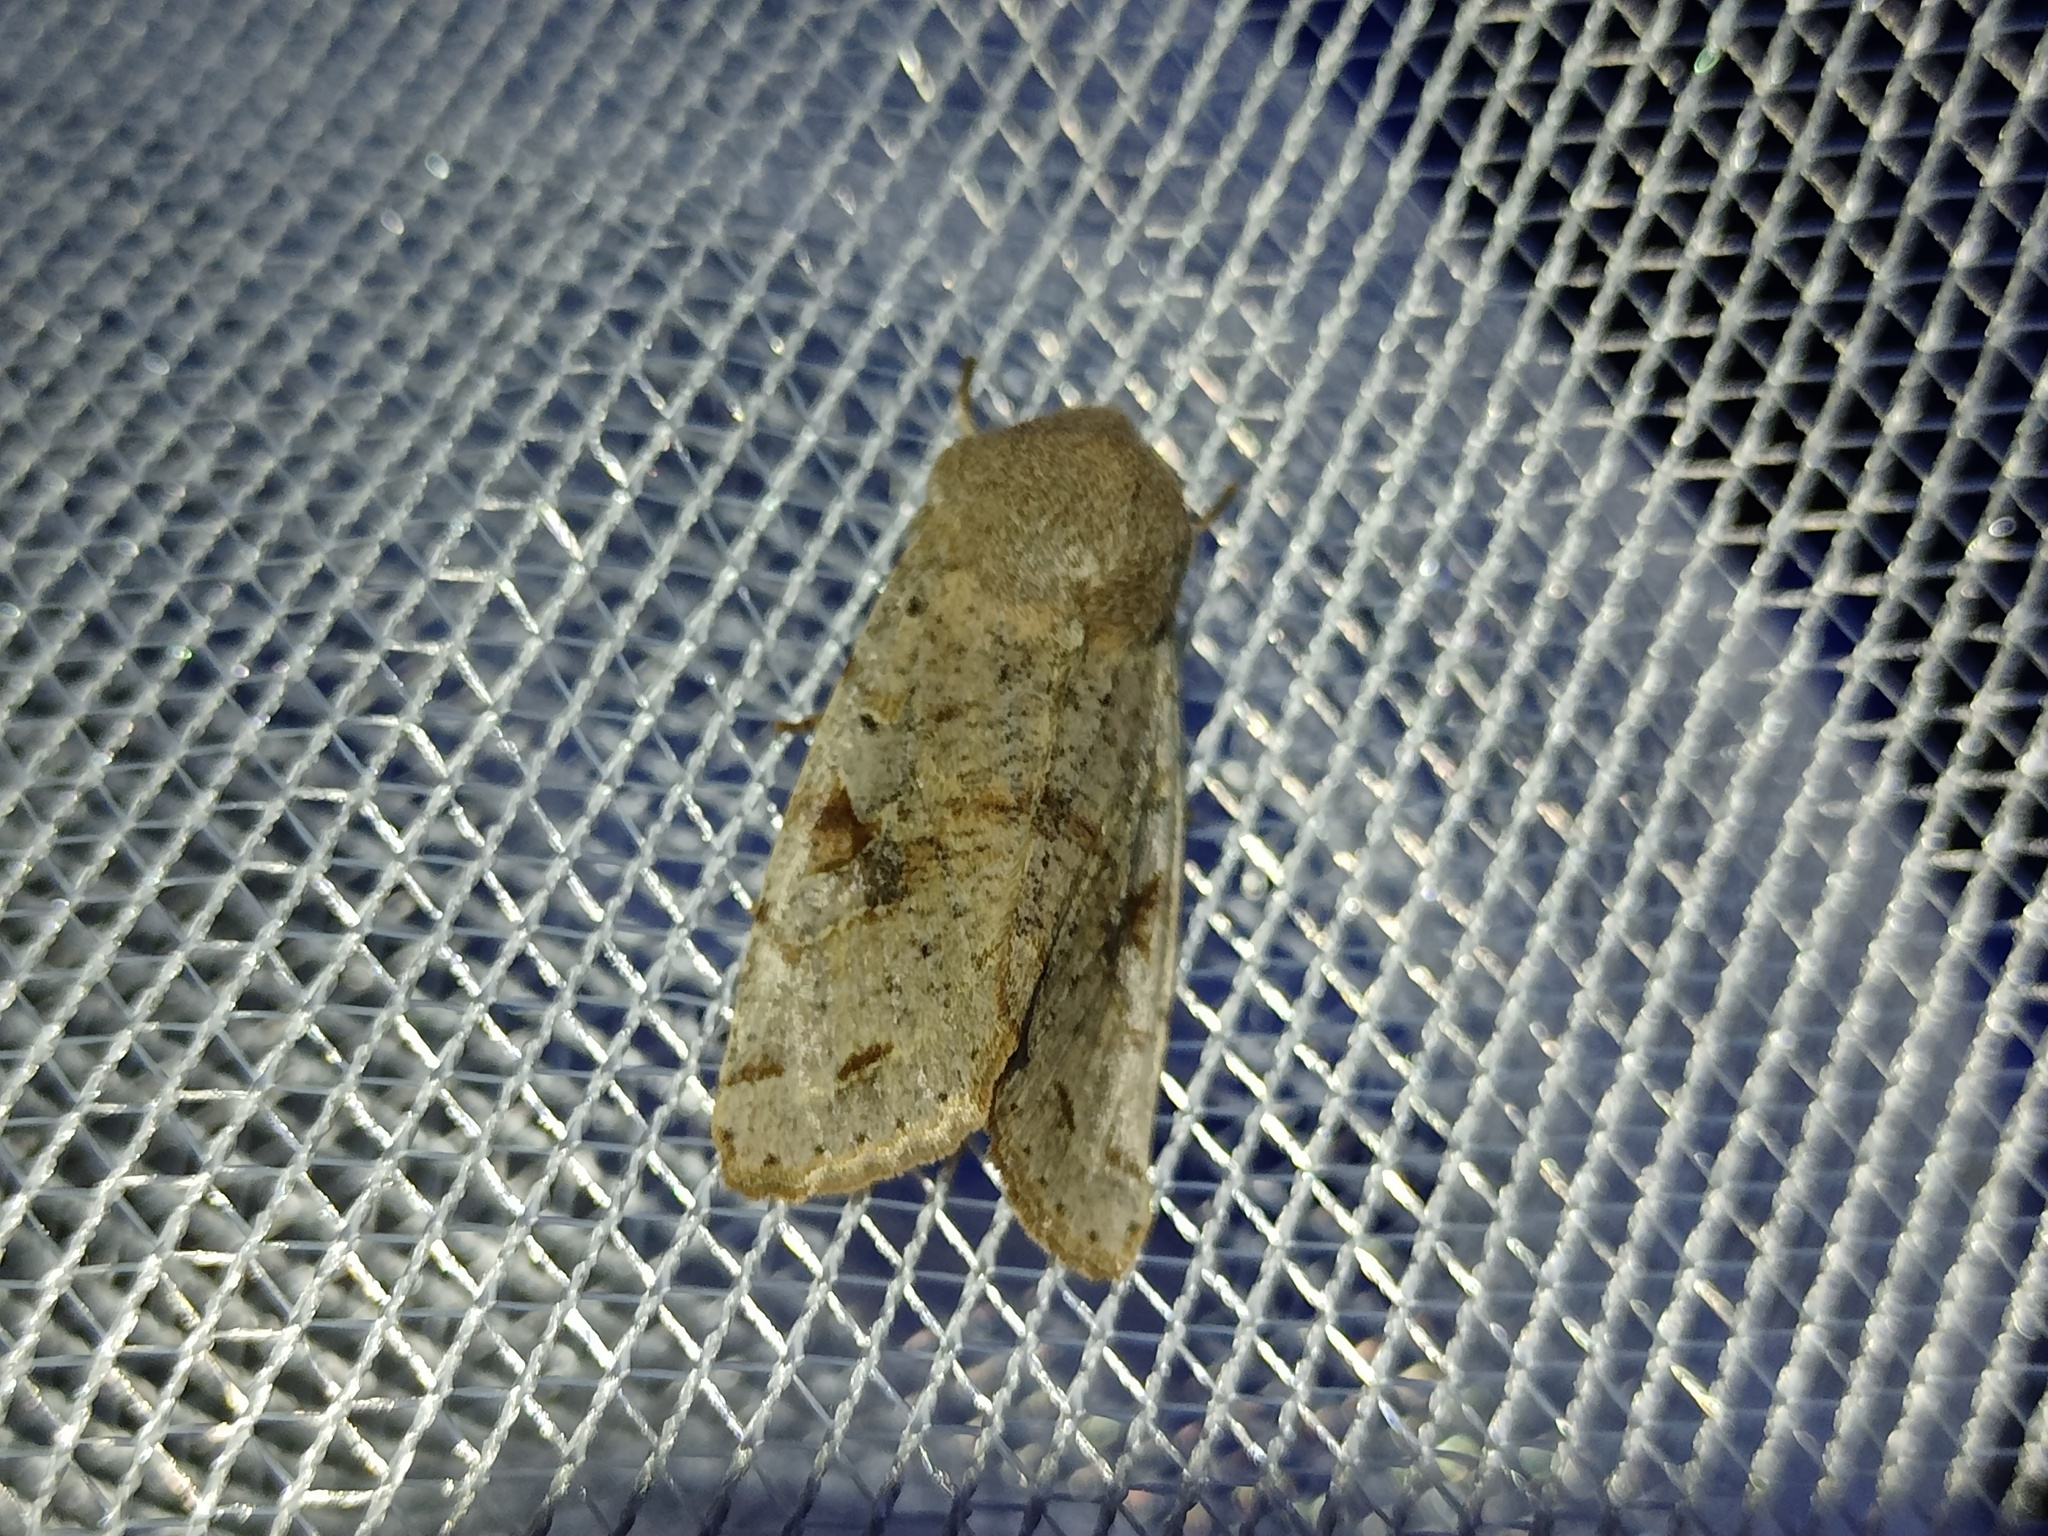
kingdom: Animalia
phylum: Arthropoda
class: Insecta
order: Lepidoptera
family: Noctuidae
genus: Orthosia
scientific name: Orthosia incerta
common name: Clouded drab
